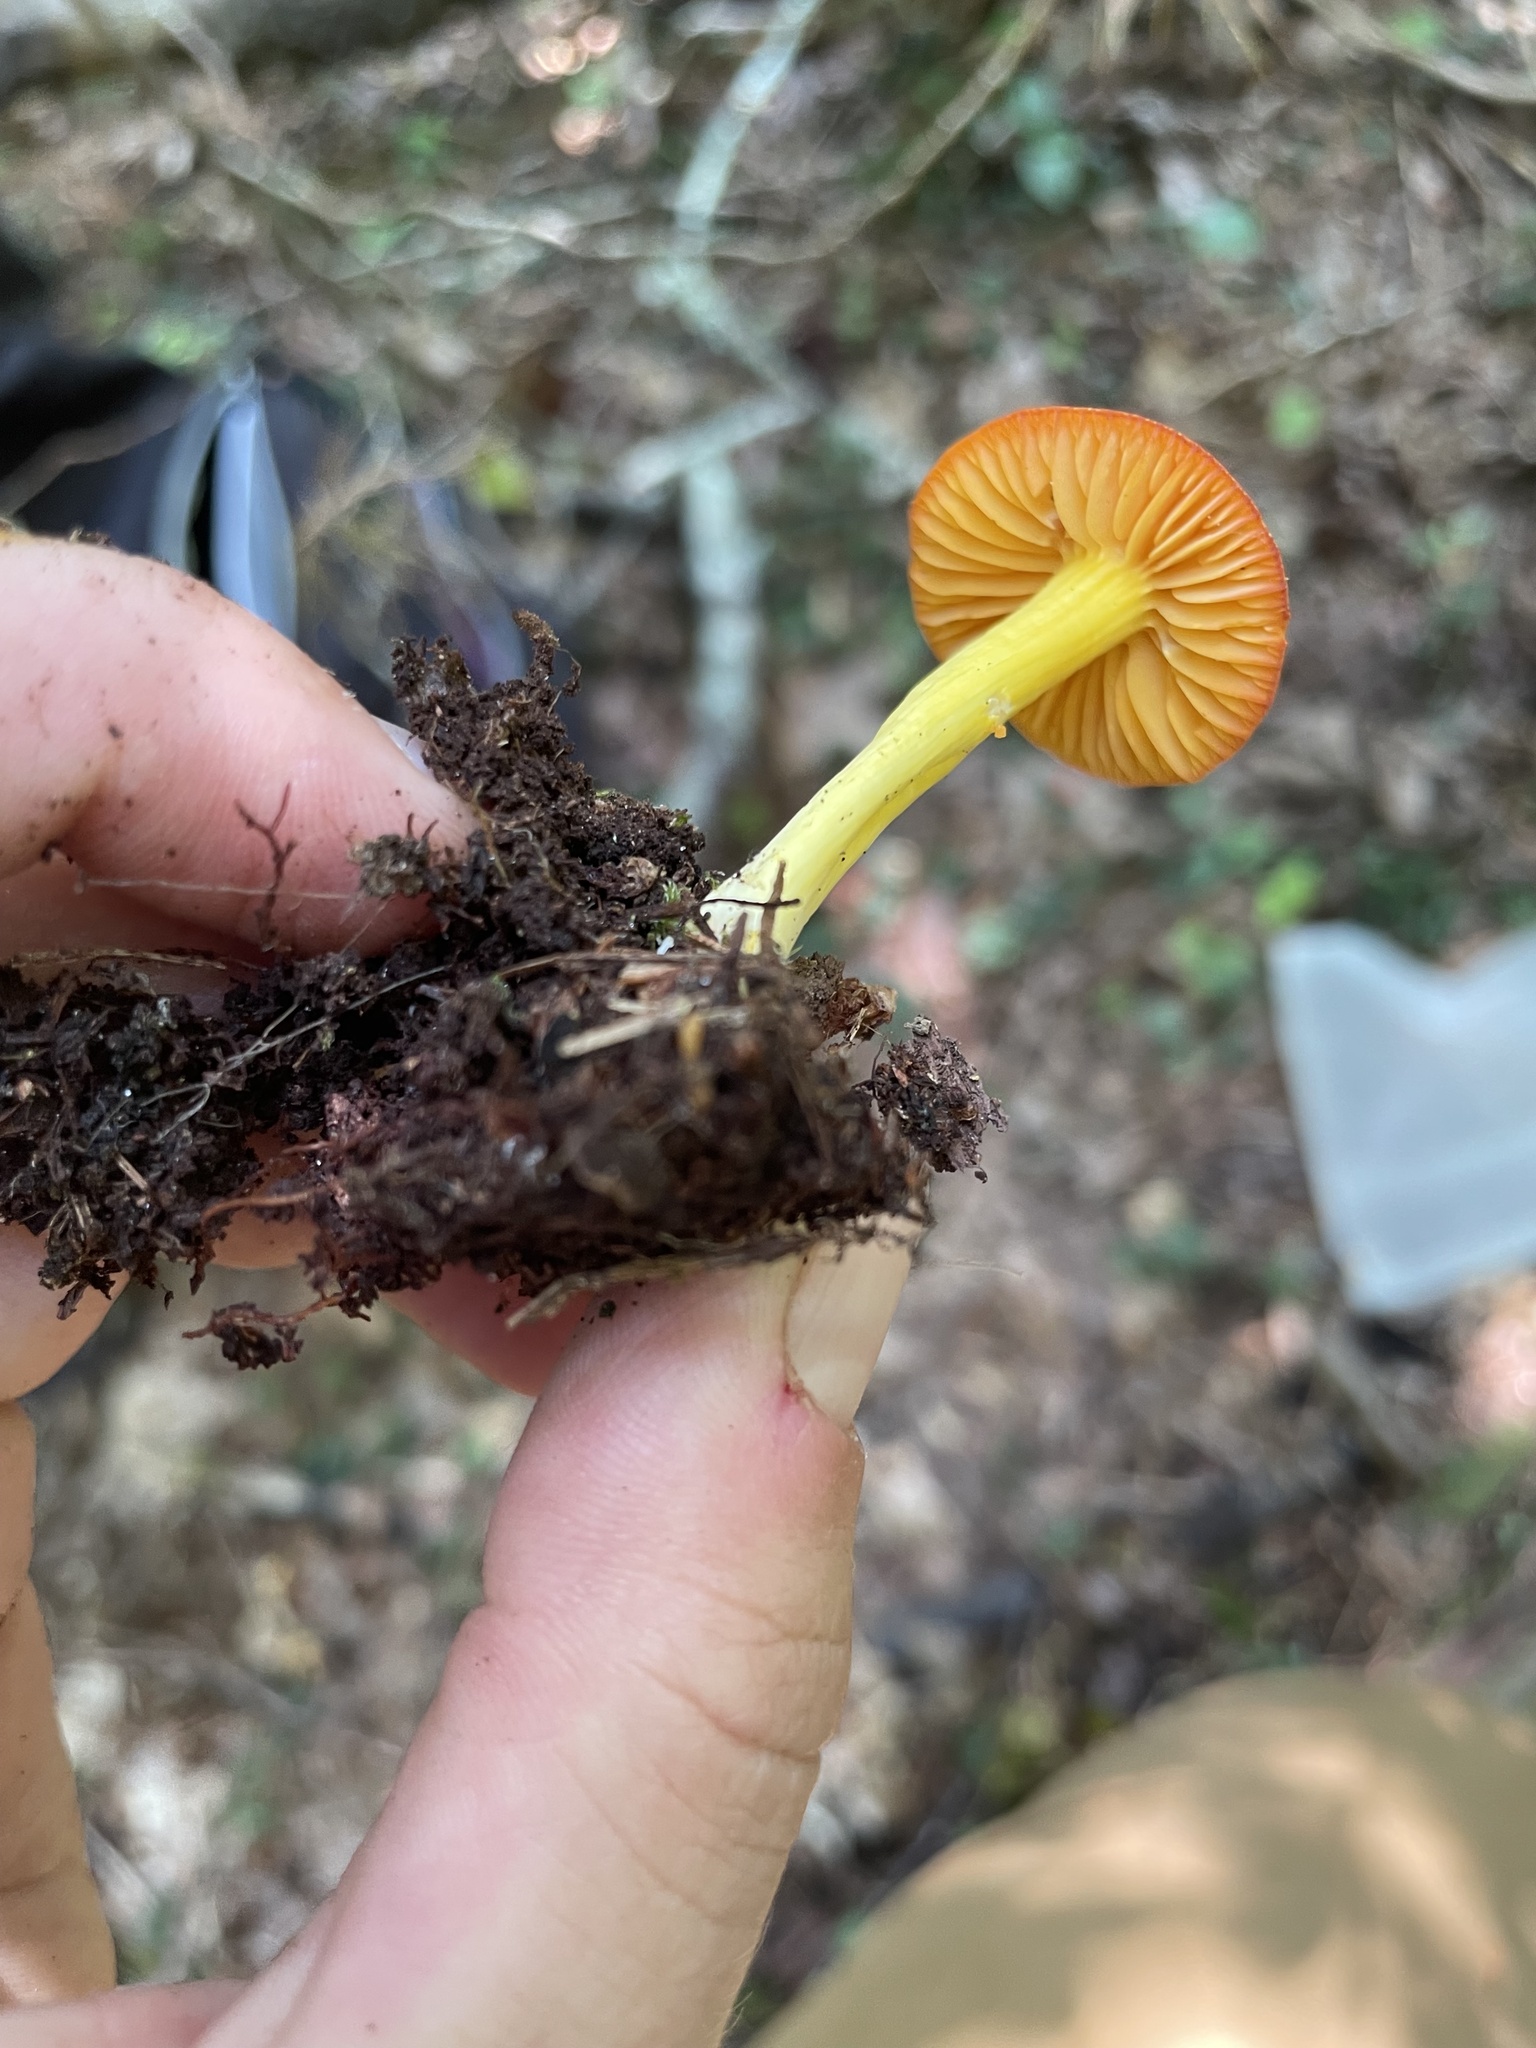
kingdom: Fungi
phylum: Basidiomycota
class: Agaricomycetes
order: Agaricales
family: Hygrophoraceae
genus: Humidicutis
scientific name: Humidicutis marginata
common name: Orange gilled waxcap
